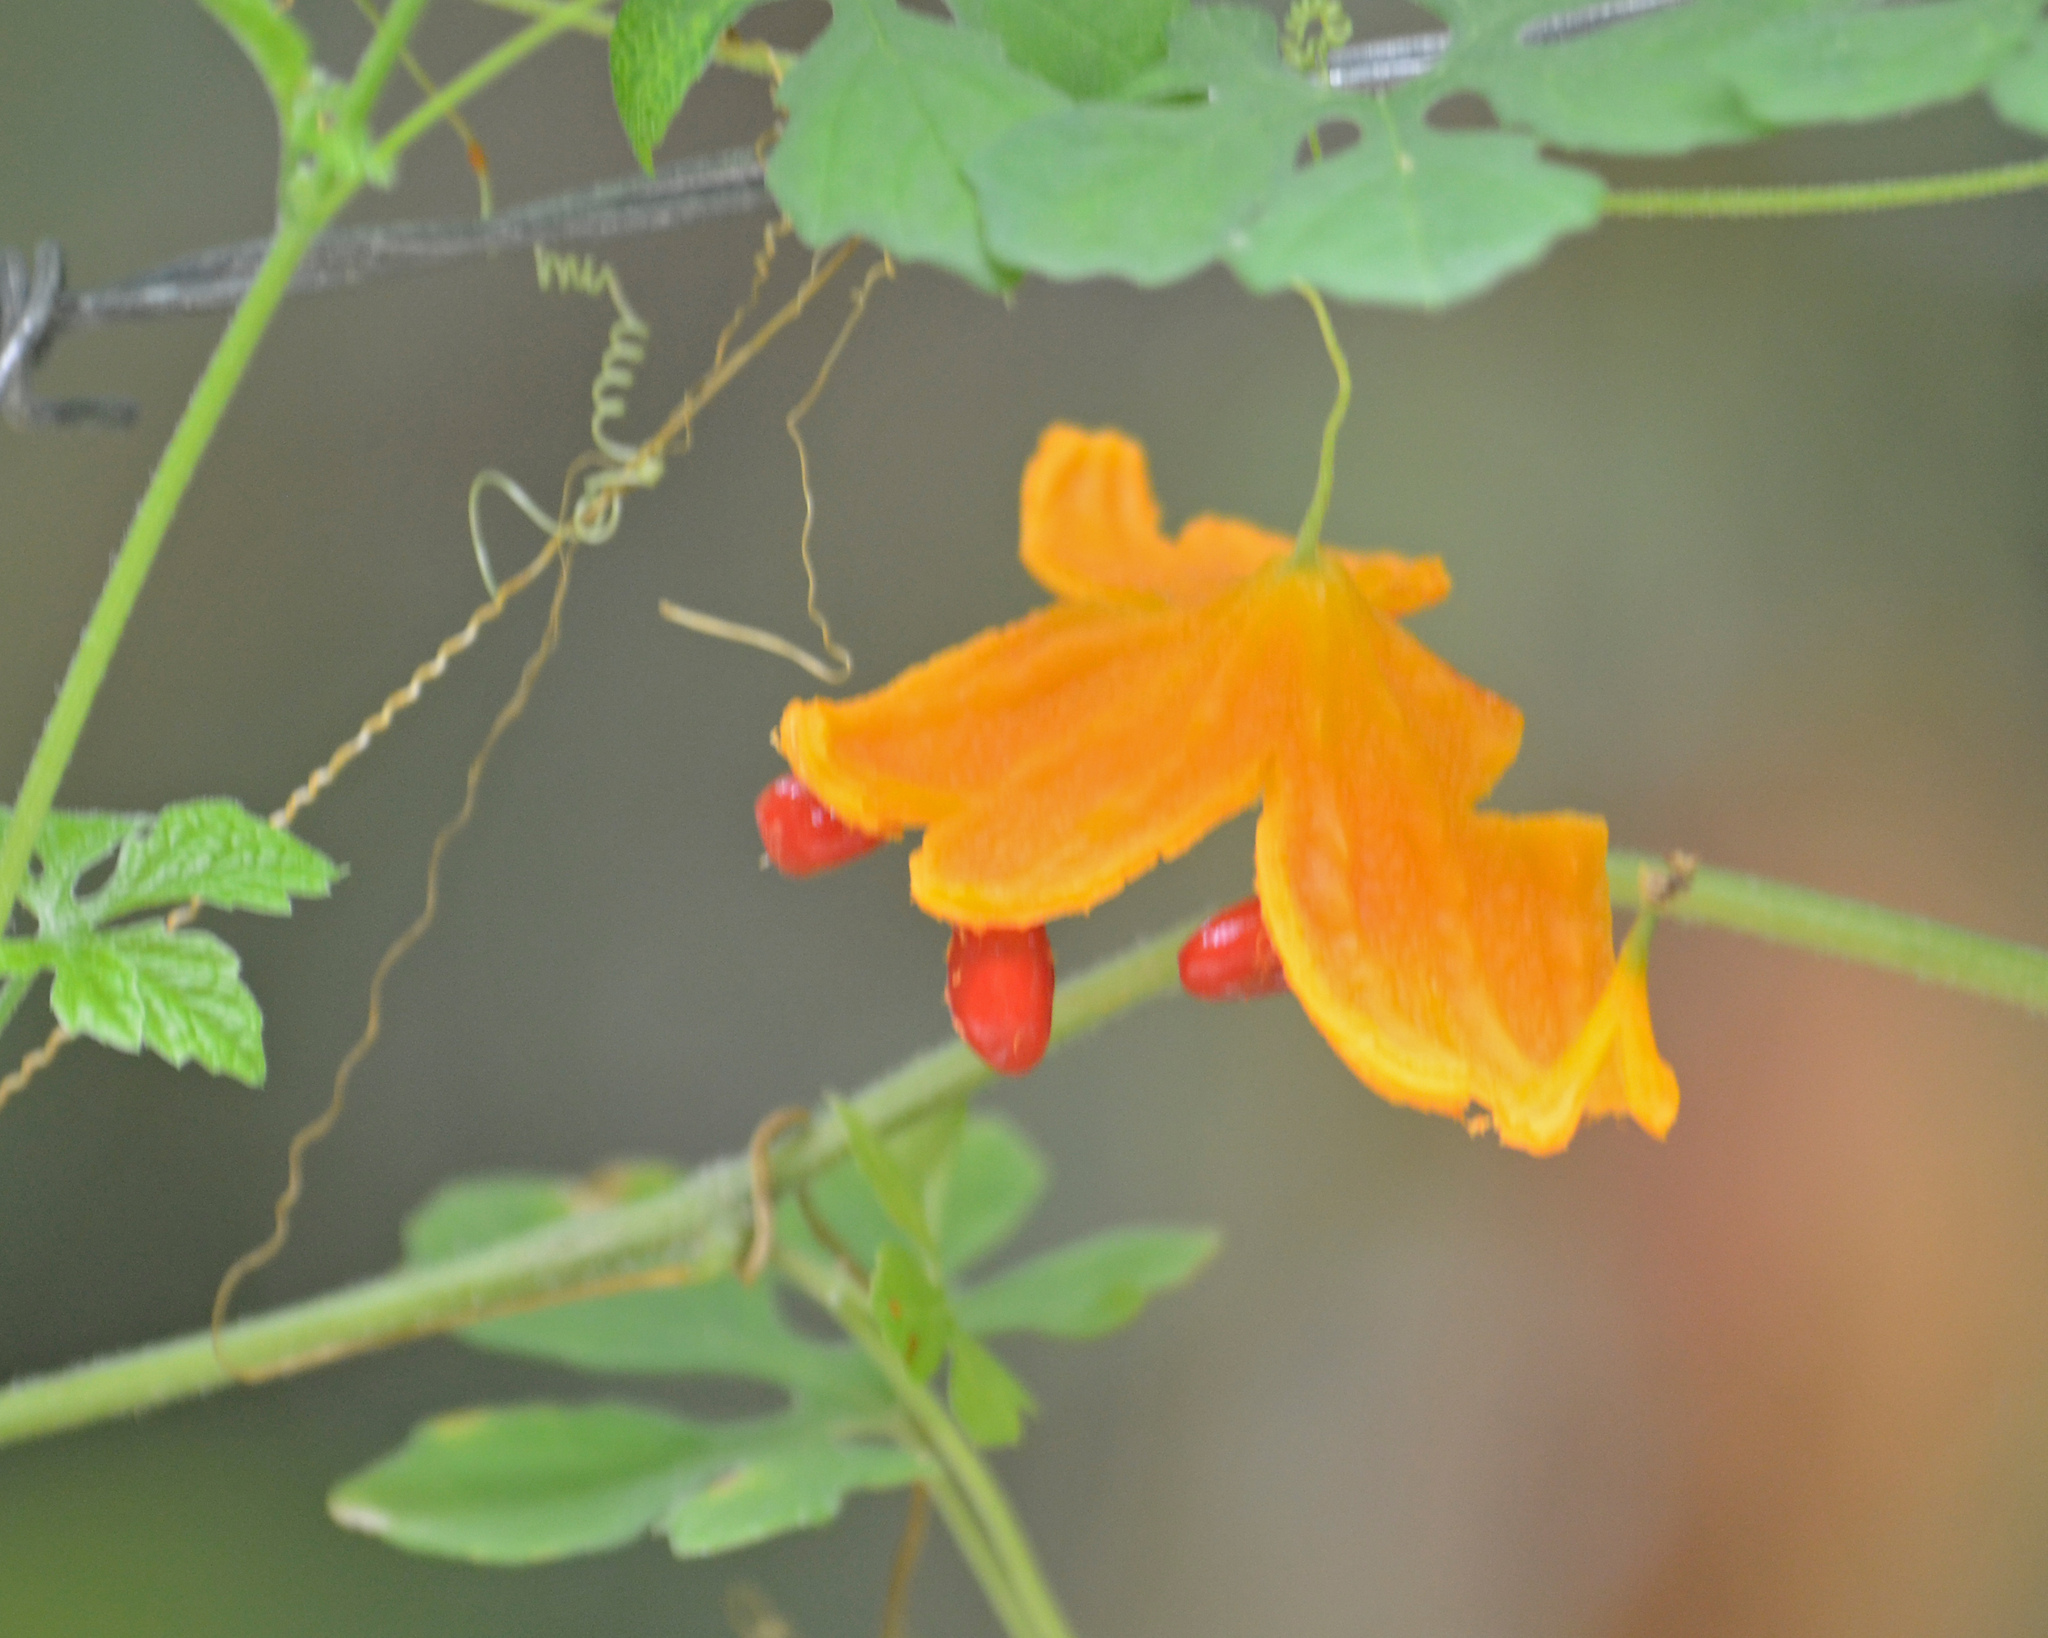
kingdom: Plantae
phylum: Tracheophyta
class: Magnoliopsida
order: Cucurbitales
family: Cucurbitaceae
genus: Momordica
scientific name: Momordica charantia
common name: Balsampear
